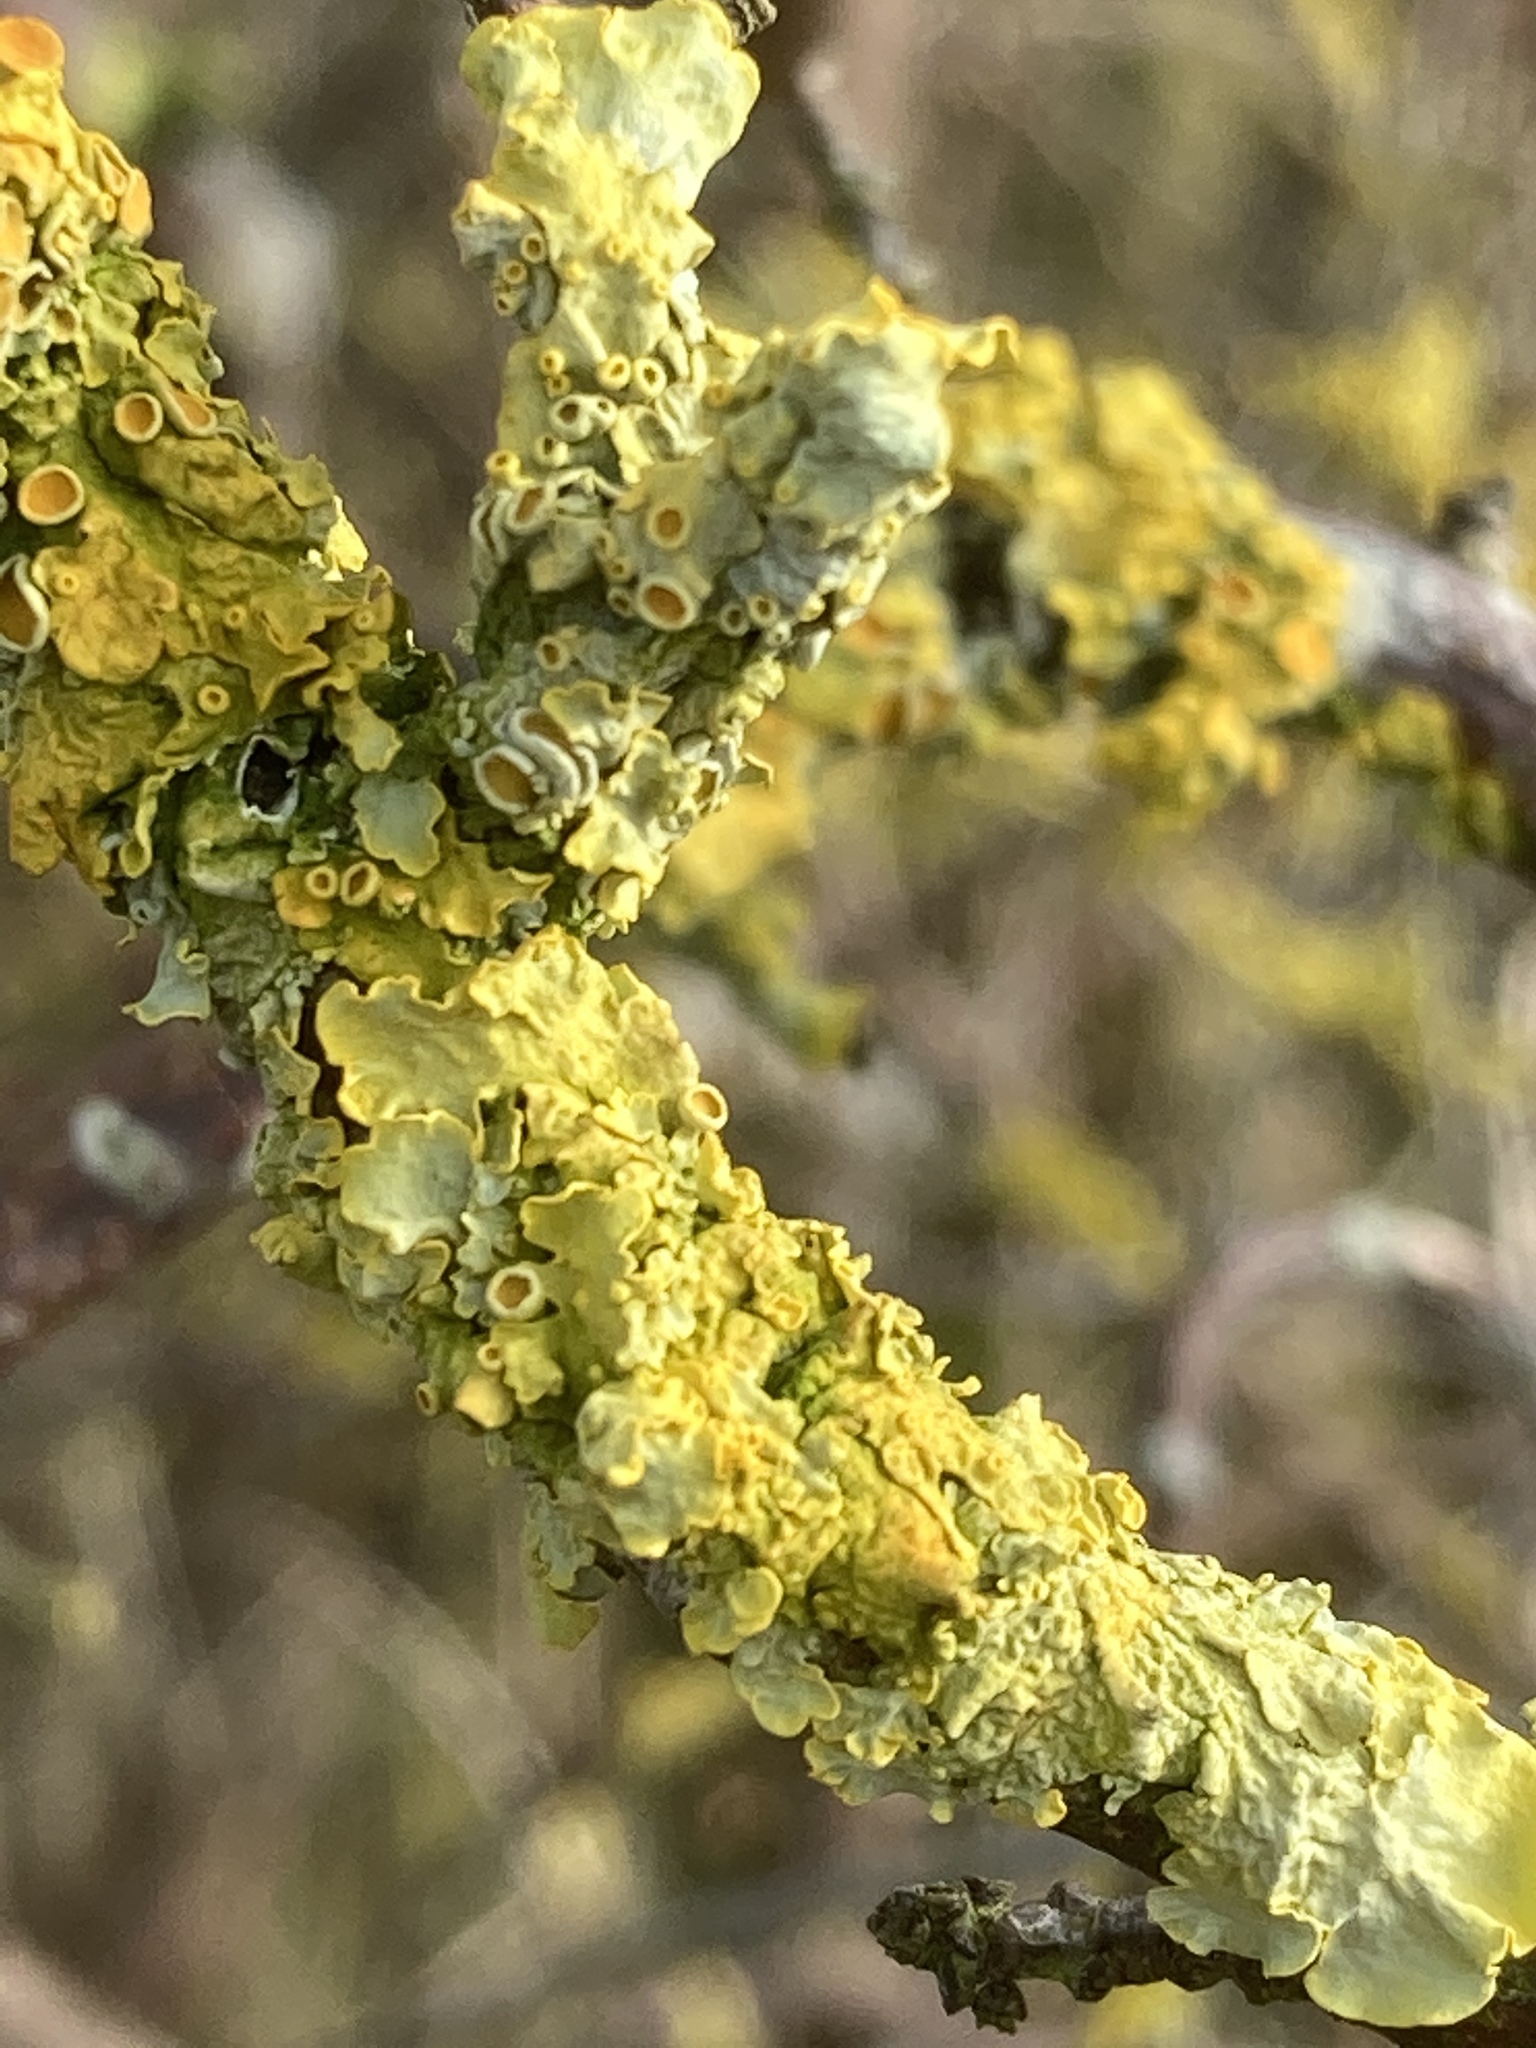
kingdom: Fungi
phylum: Ascomycota
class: Lecanoromycetes
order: Teloschistales
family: Teloschistaceae
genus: Xanthoria
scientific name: Xanthoria parietina
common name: Common orange lichen
